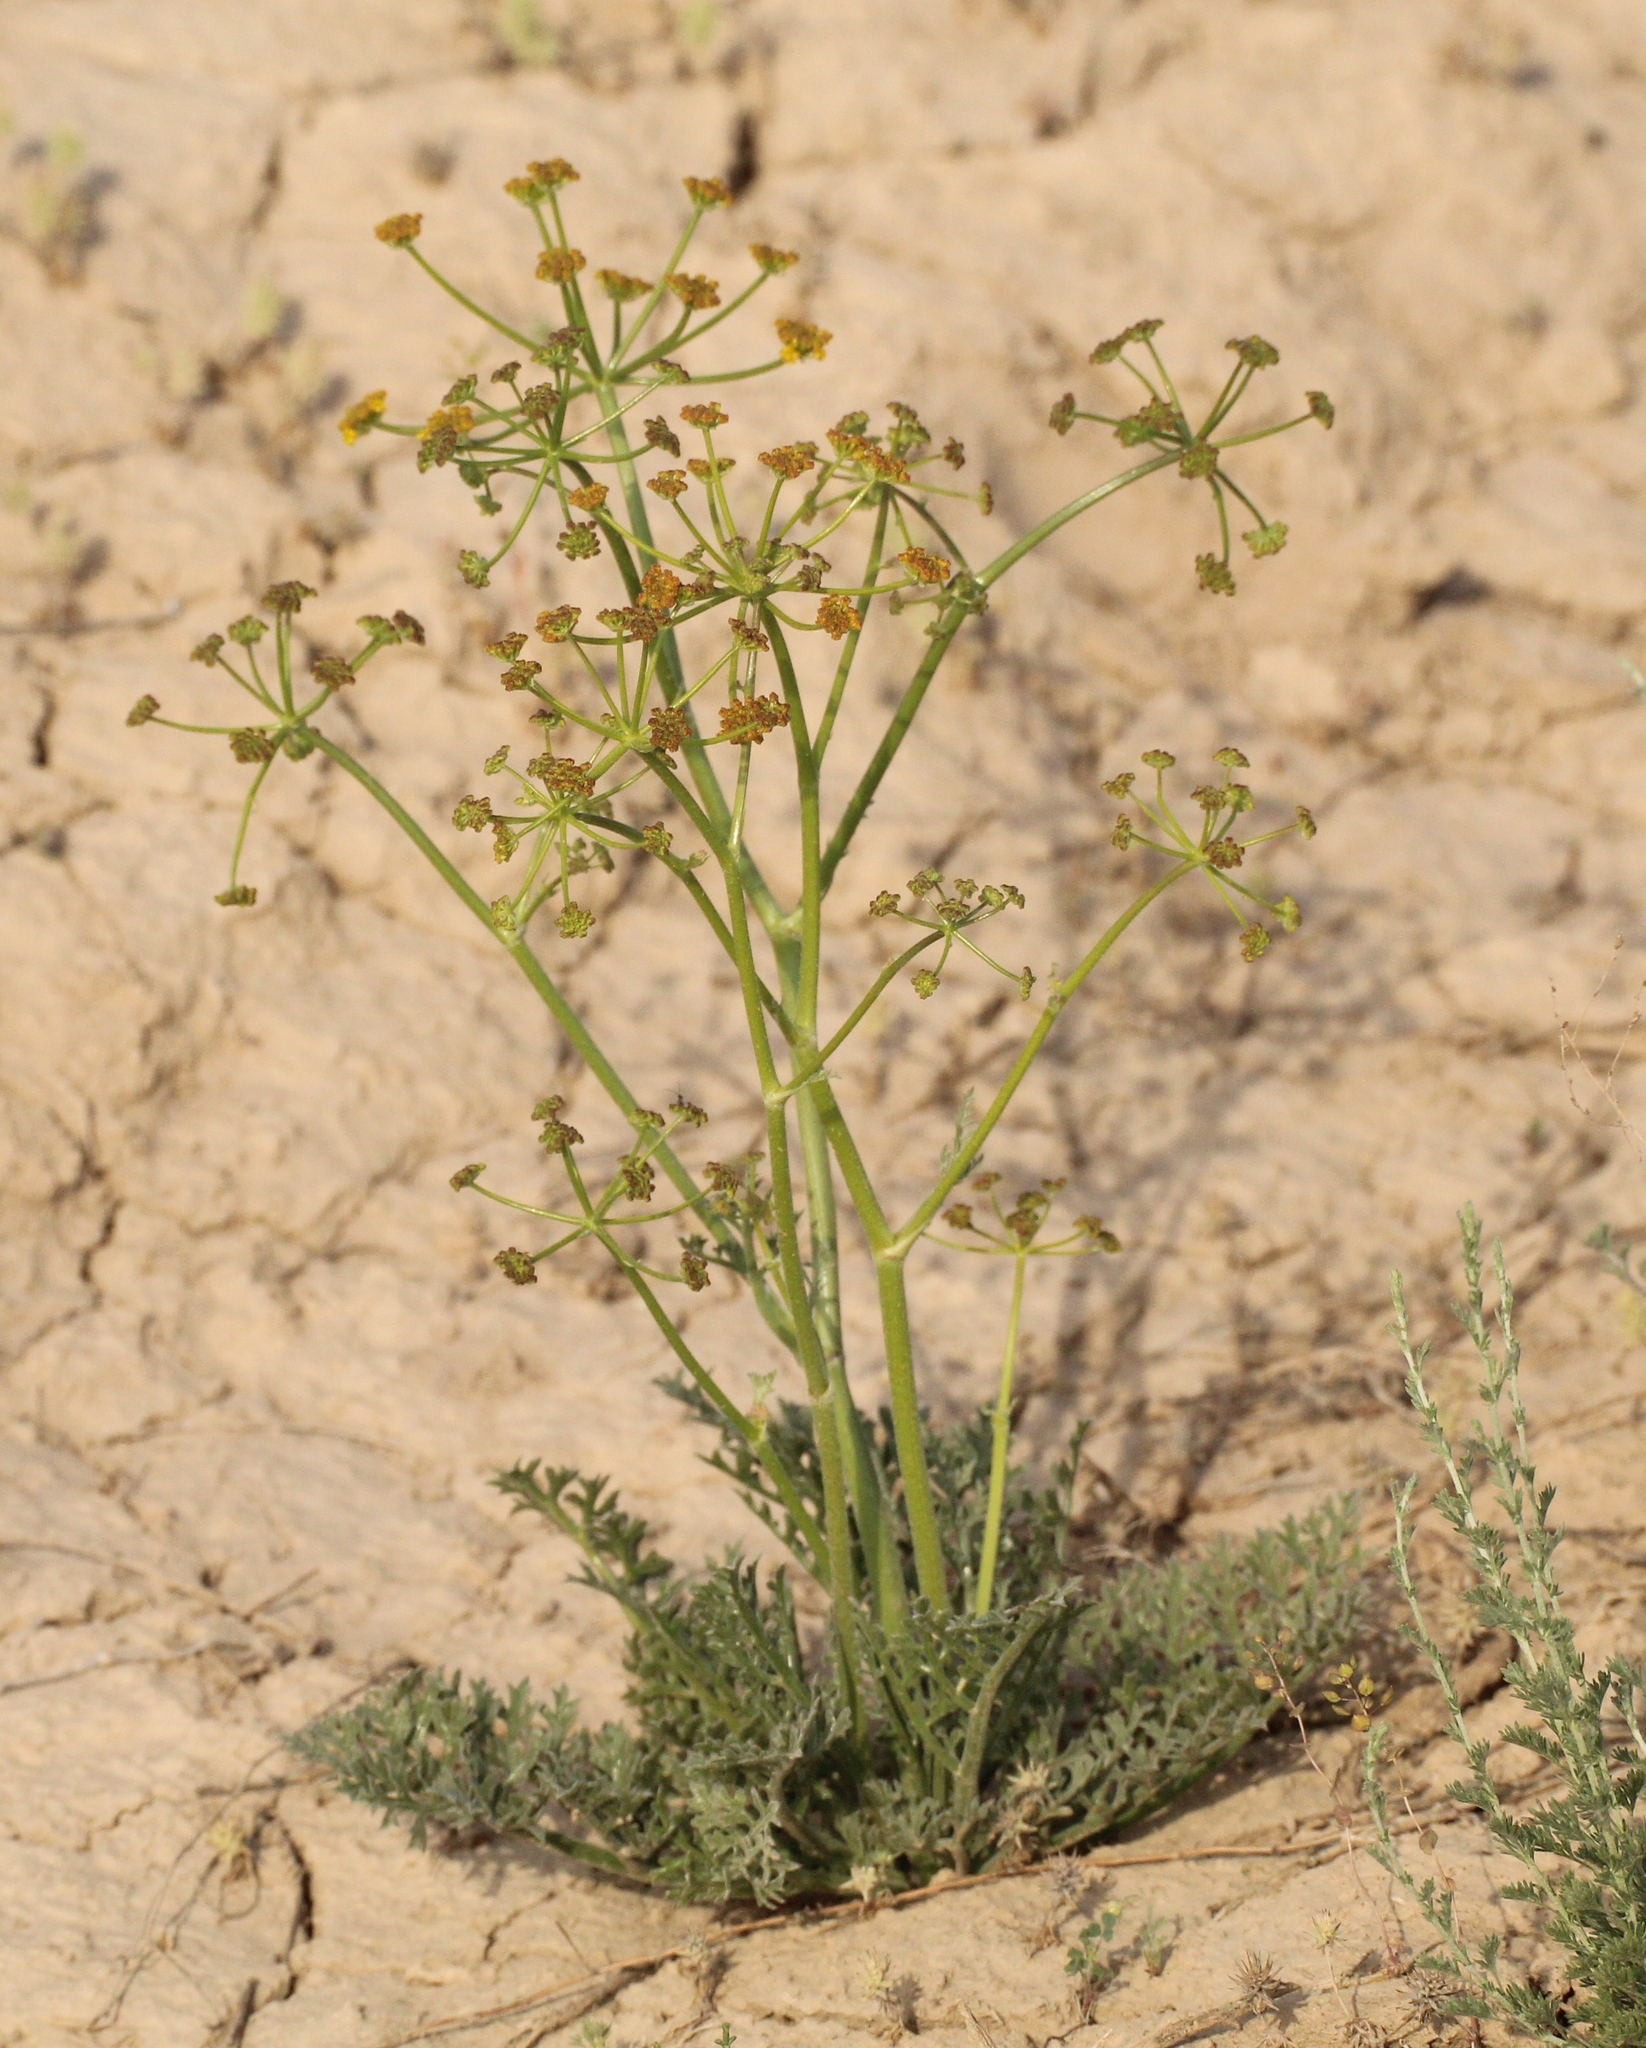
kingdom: Plantae
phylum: Tracheophyta
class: Magnoliopsida
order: Apiales
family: Apiaceae
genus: Ferula
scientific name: Ferula syreitschikowii
